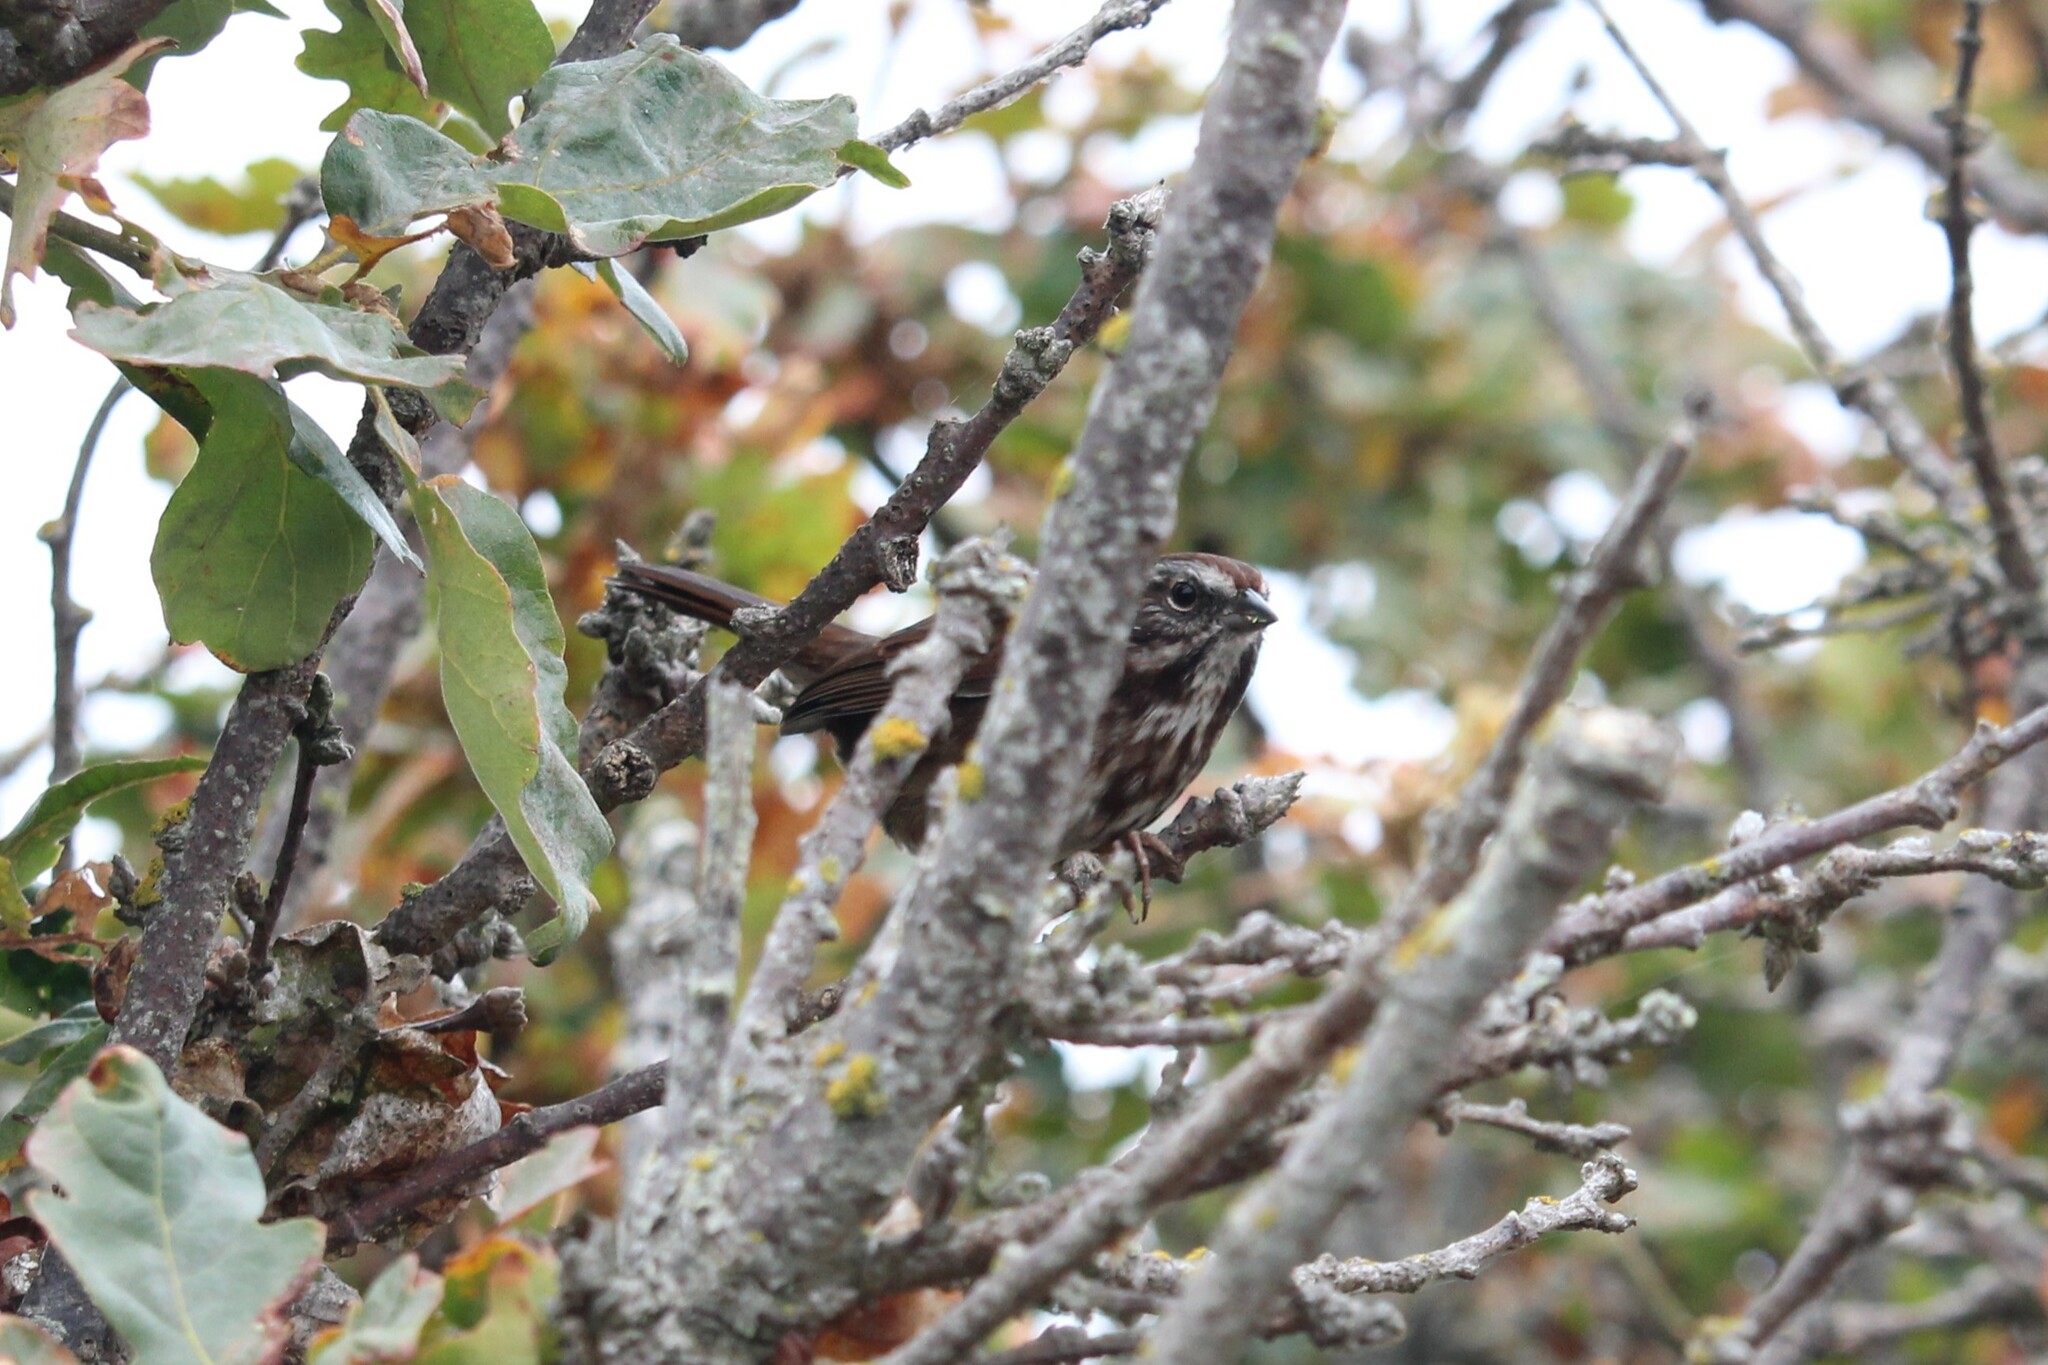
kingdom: Animalia
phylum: Chordata
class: Aves
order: Passeriformes
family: Passerellidae
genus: Melospiza
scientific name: Melospiza melodia
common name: Song sparrow
